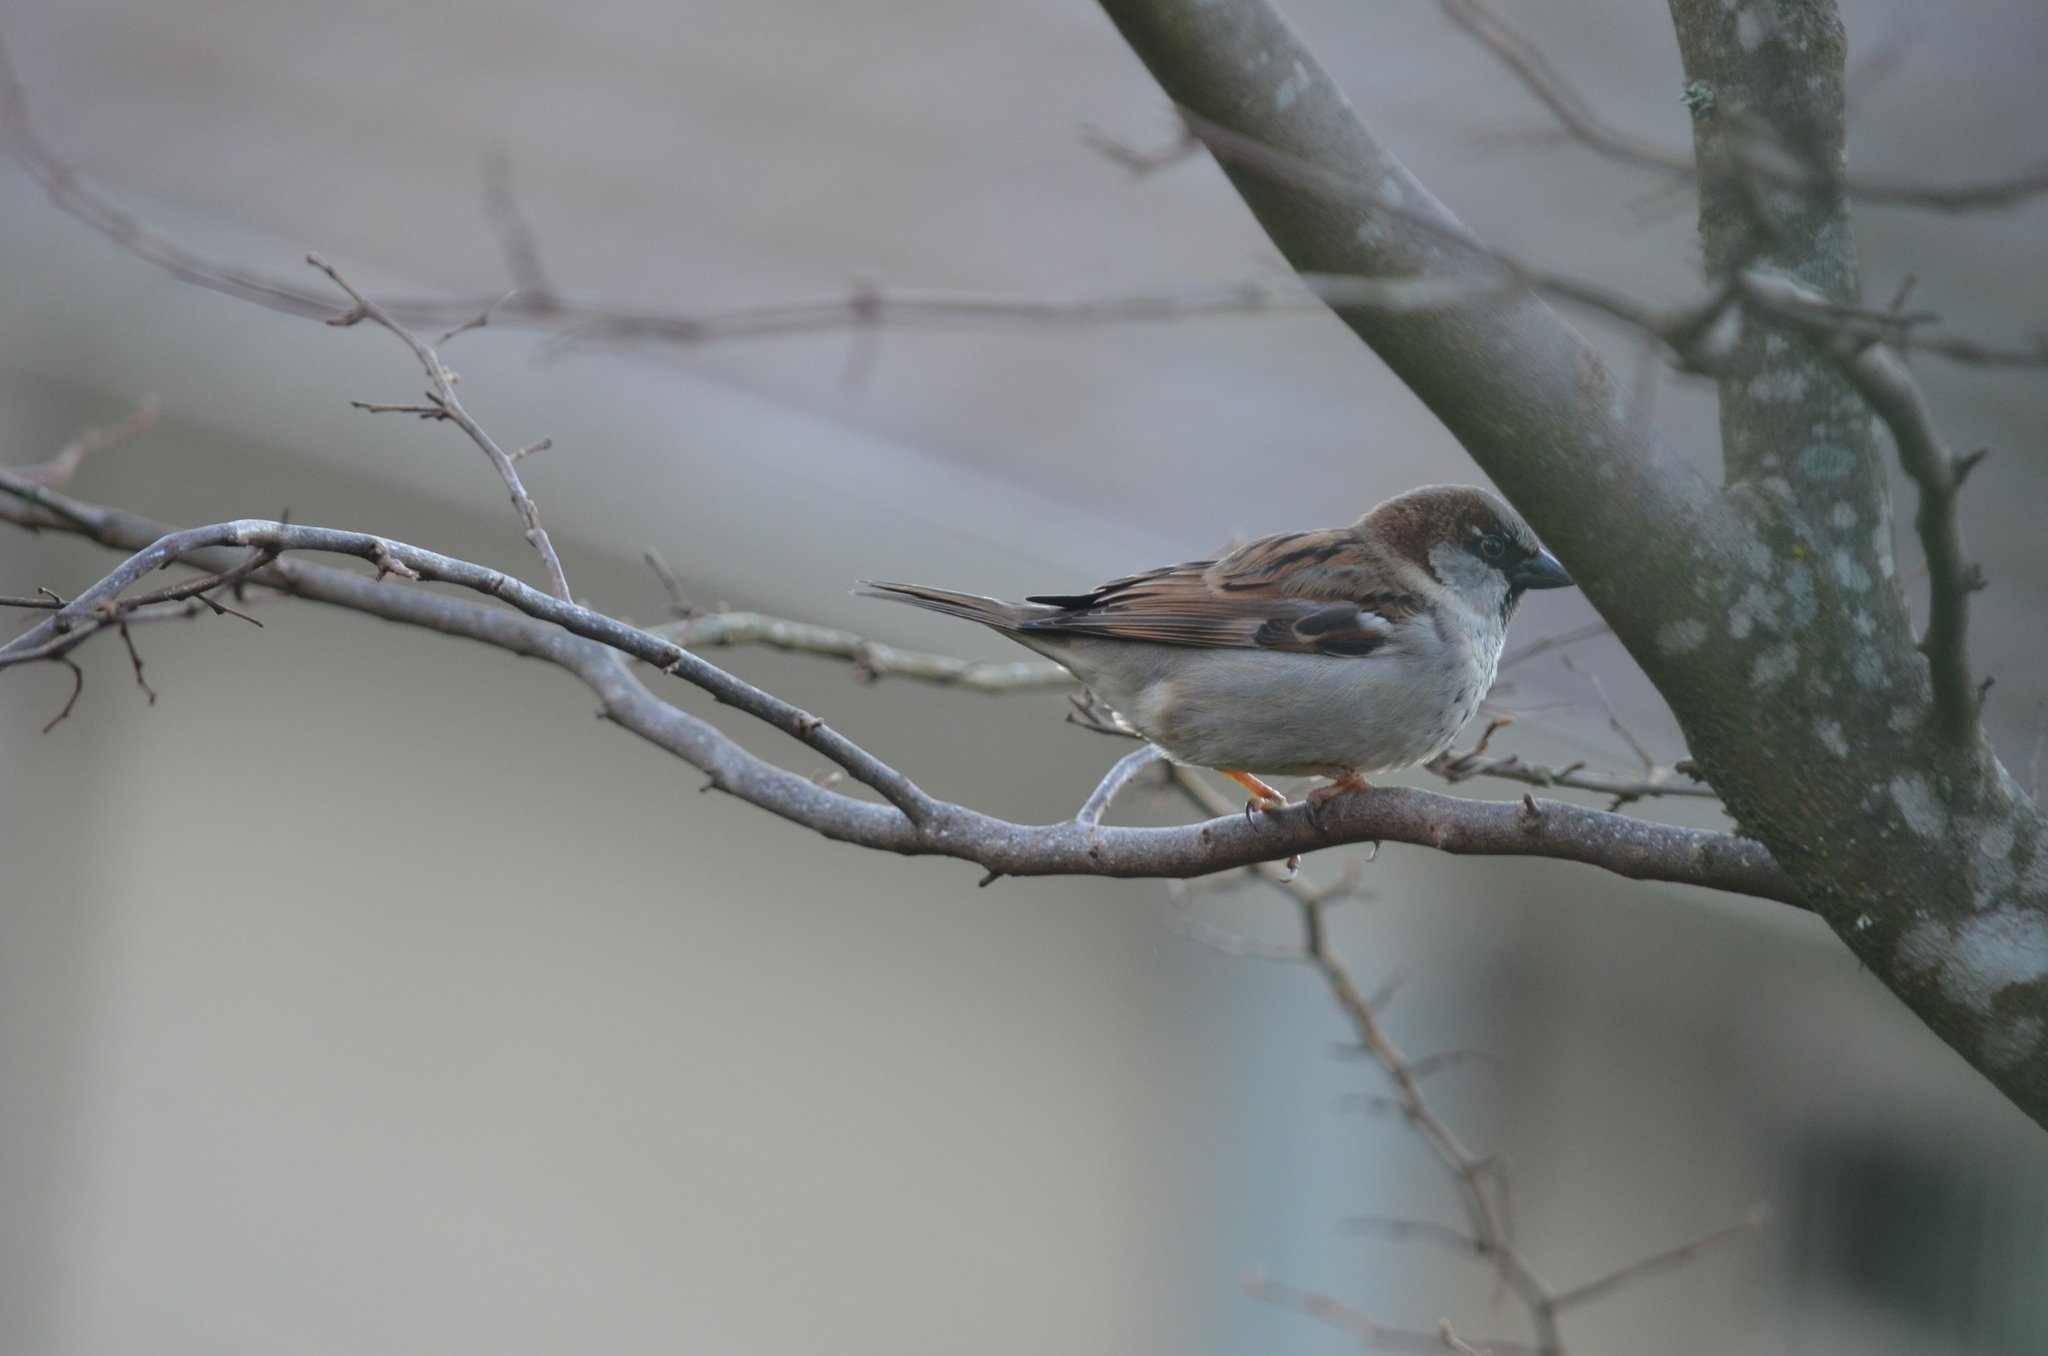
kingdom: Animalia
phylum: Chordata
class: Aves
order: Passeriformes
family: Passeridae
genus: Passer
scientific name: Passer domesticus
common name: House sparrow
